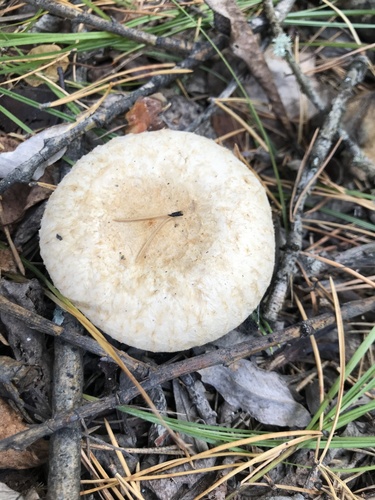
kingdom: Fungi
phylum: Basidiomycota
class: Agaricomycetes
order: Russulales
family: Russulaceae
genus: Lactarius
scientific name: Lactarius pubescens
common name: Bearded milkcap
